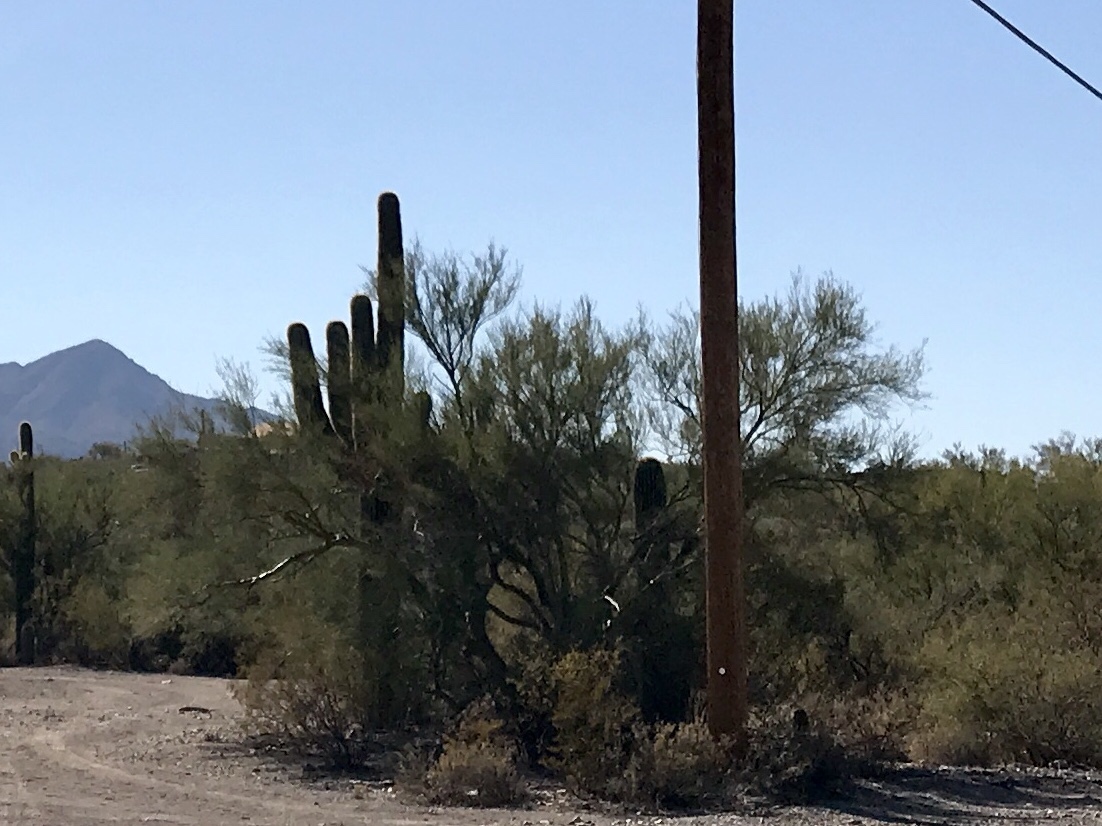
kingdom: Plantae
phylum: Tracheophyta
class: Magnoliopsida
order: Fabales
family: Fabaceae
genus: Parkinsonia
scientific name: Parkinsonia florida
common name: Blue paloverde
